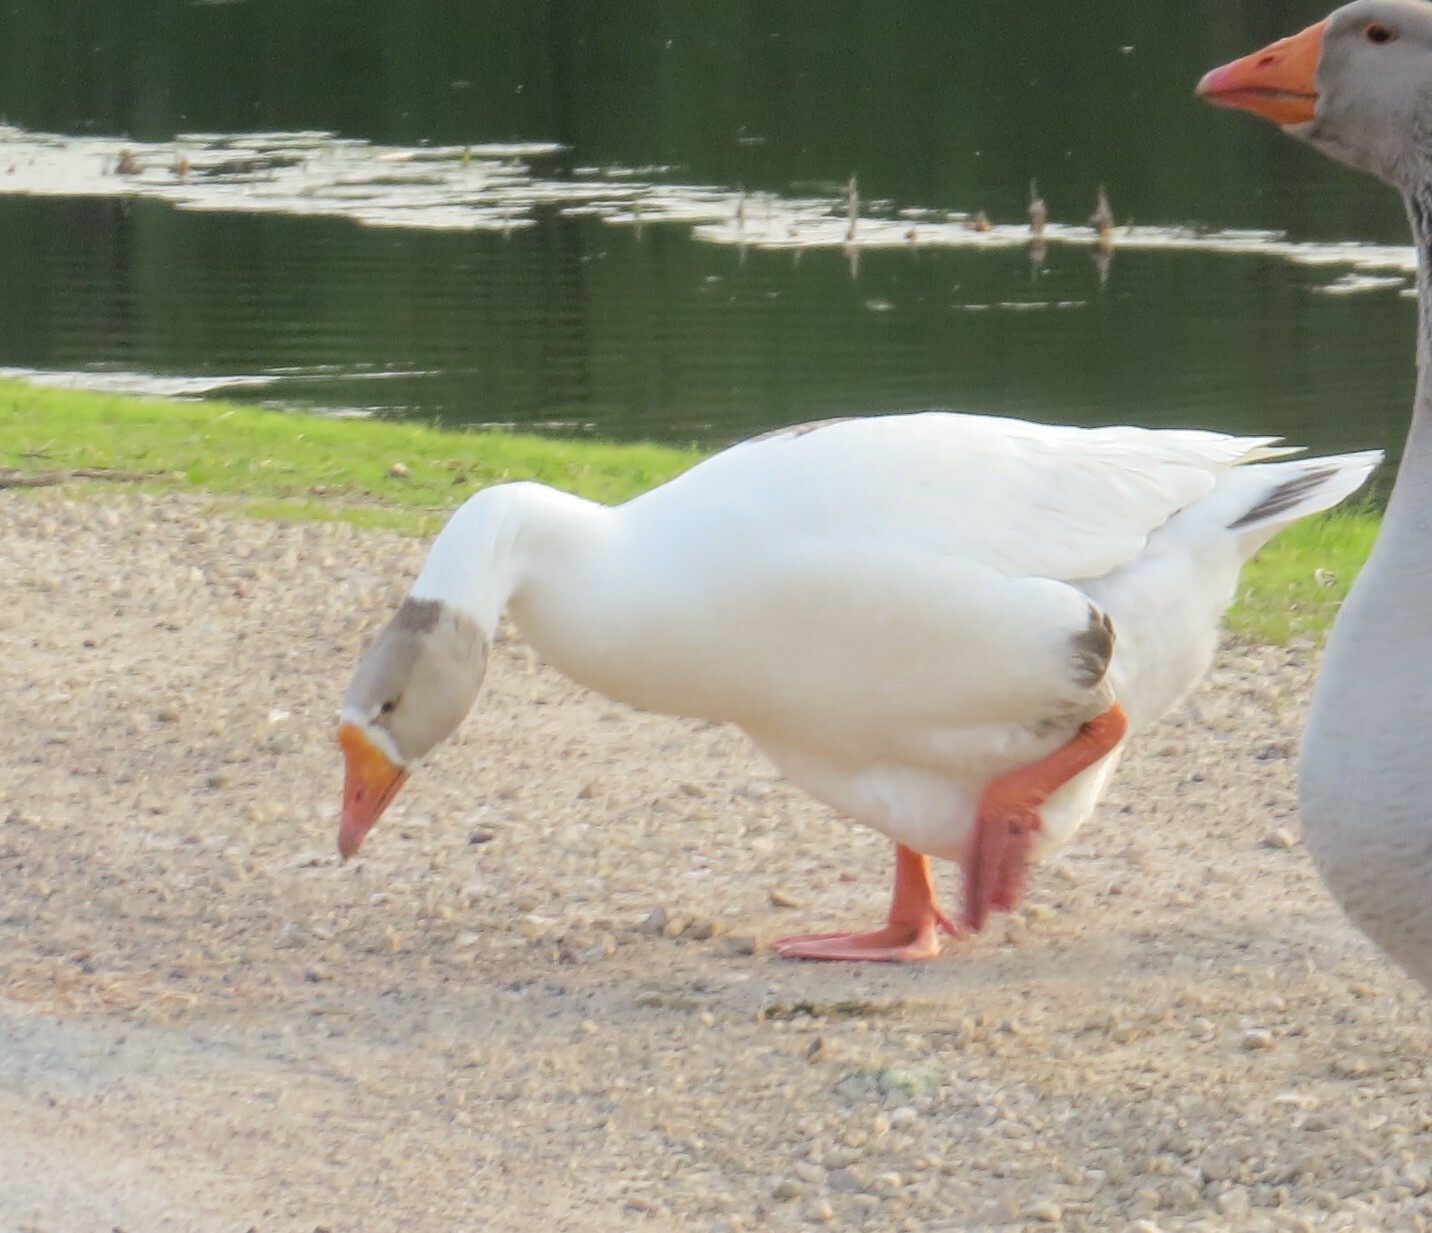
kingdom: Animalia
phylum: Chordata
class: Aves
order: Anseriformes
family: Anatidae
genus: Anser
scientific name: Anser
